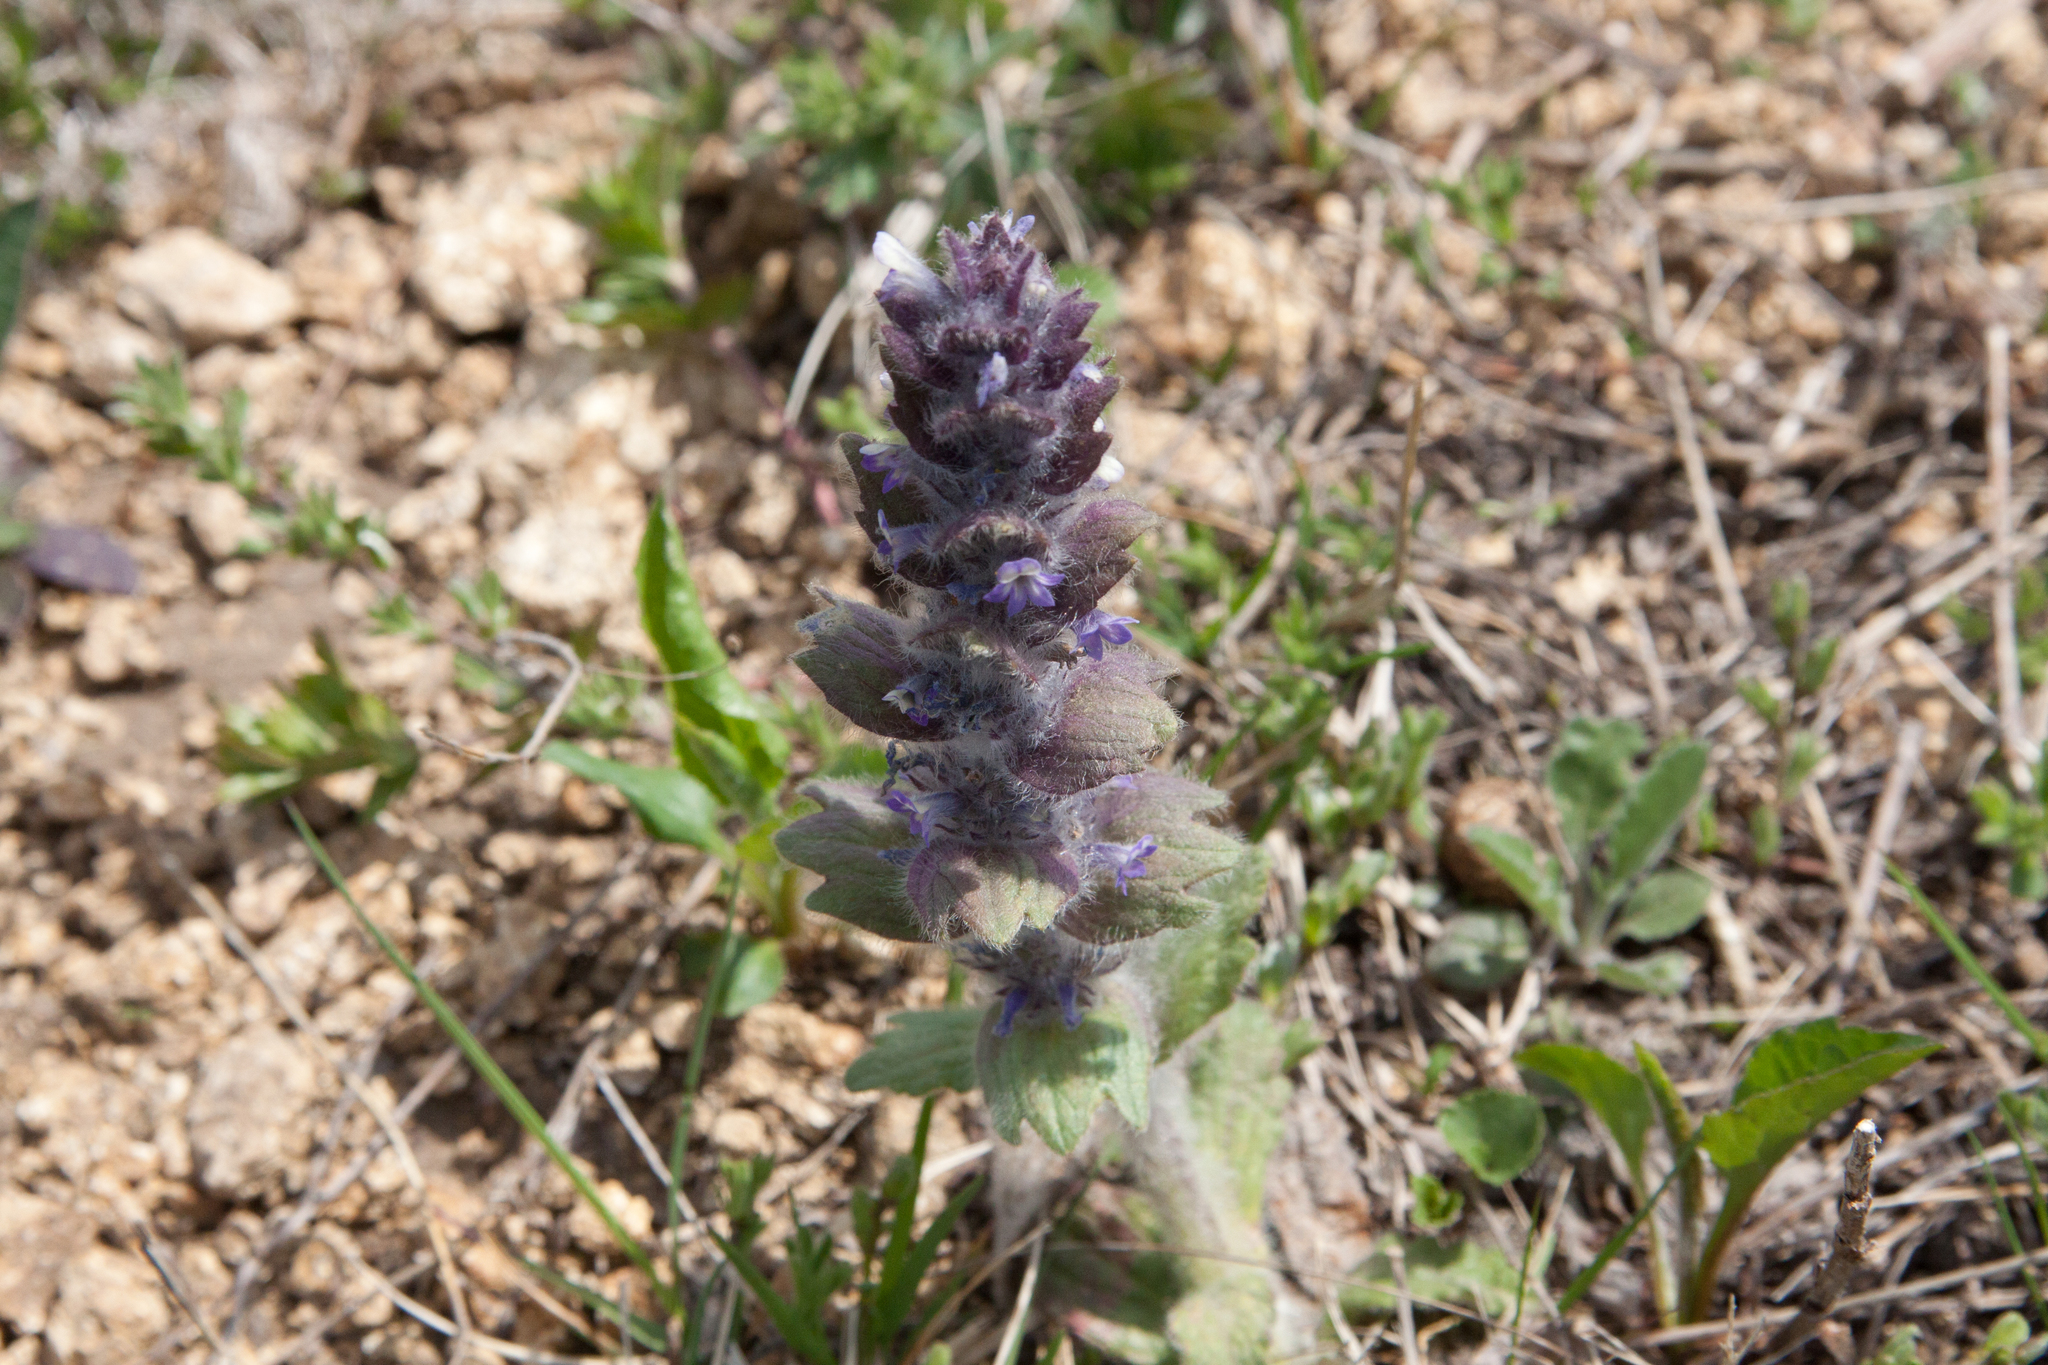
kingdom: Plantae
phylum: Tracheophyta
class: Magnoliopsida
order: Lamiales
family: Lamiaceae
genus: Ajuga
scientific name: Ajuga orientalis
